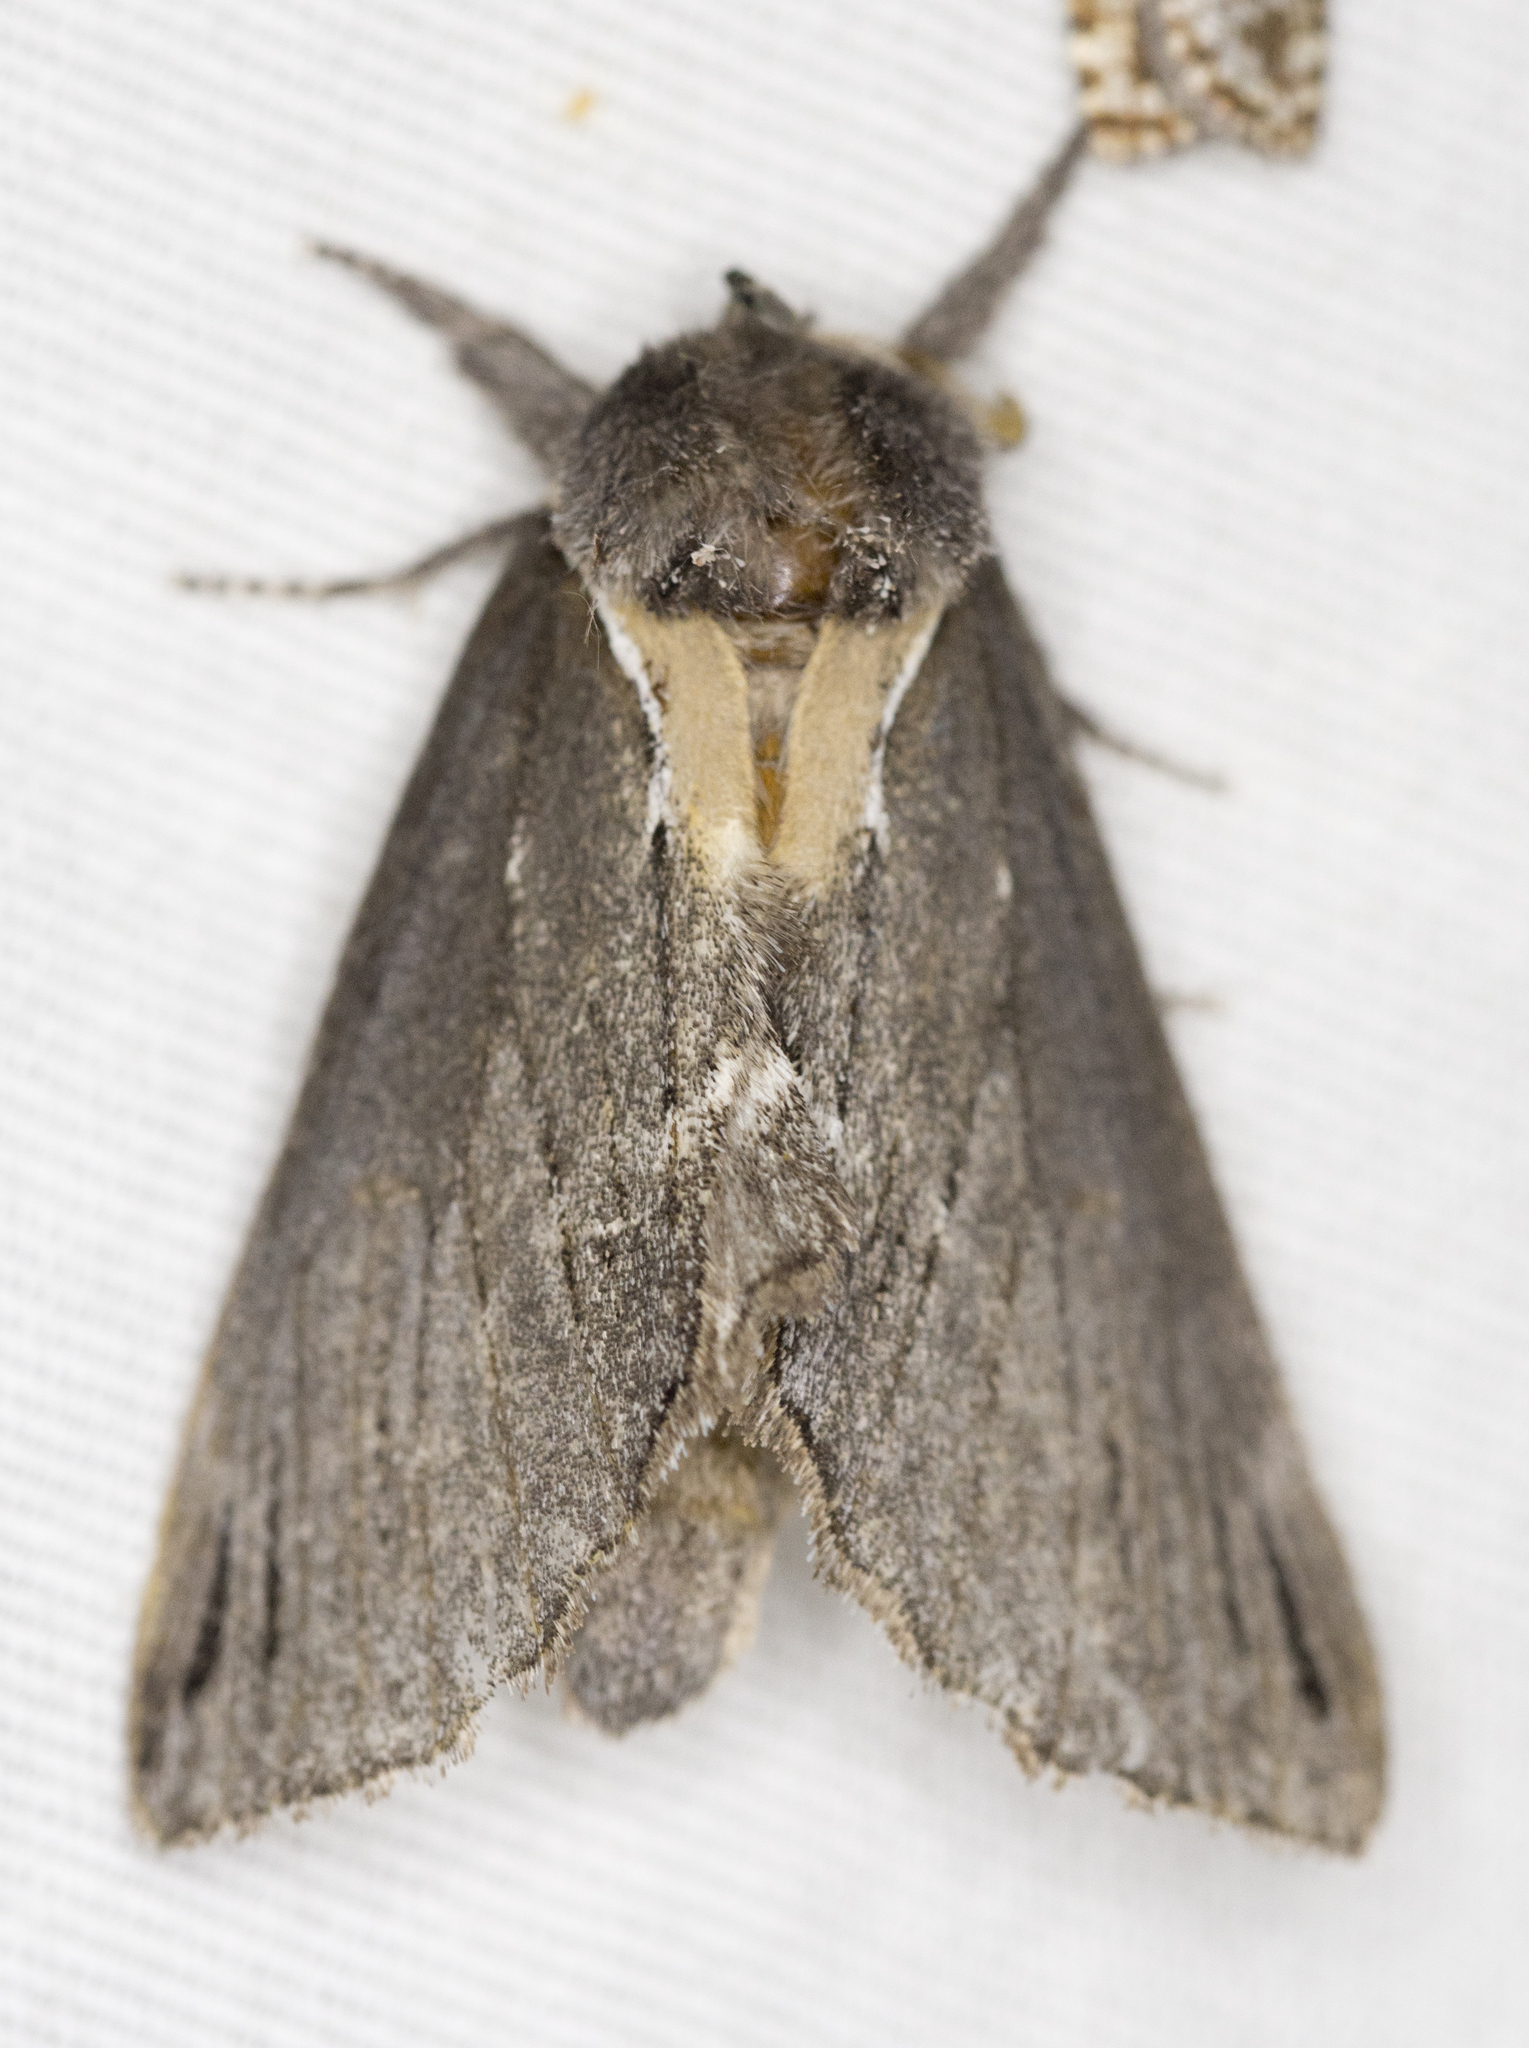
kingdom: Animalia
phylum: Arthropoda
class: Insecta
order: Lepidoptera
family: Notodontidae
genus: Pheosidea
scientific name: Pheosidea elegans
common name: Elegant prominent
